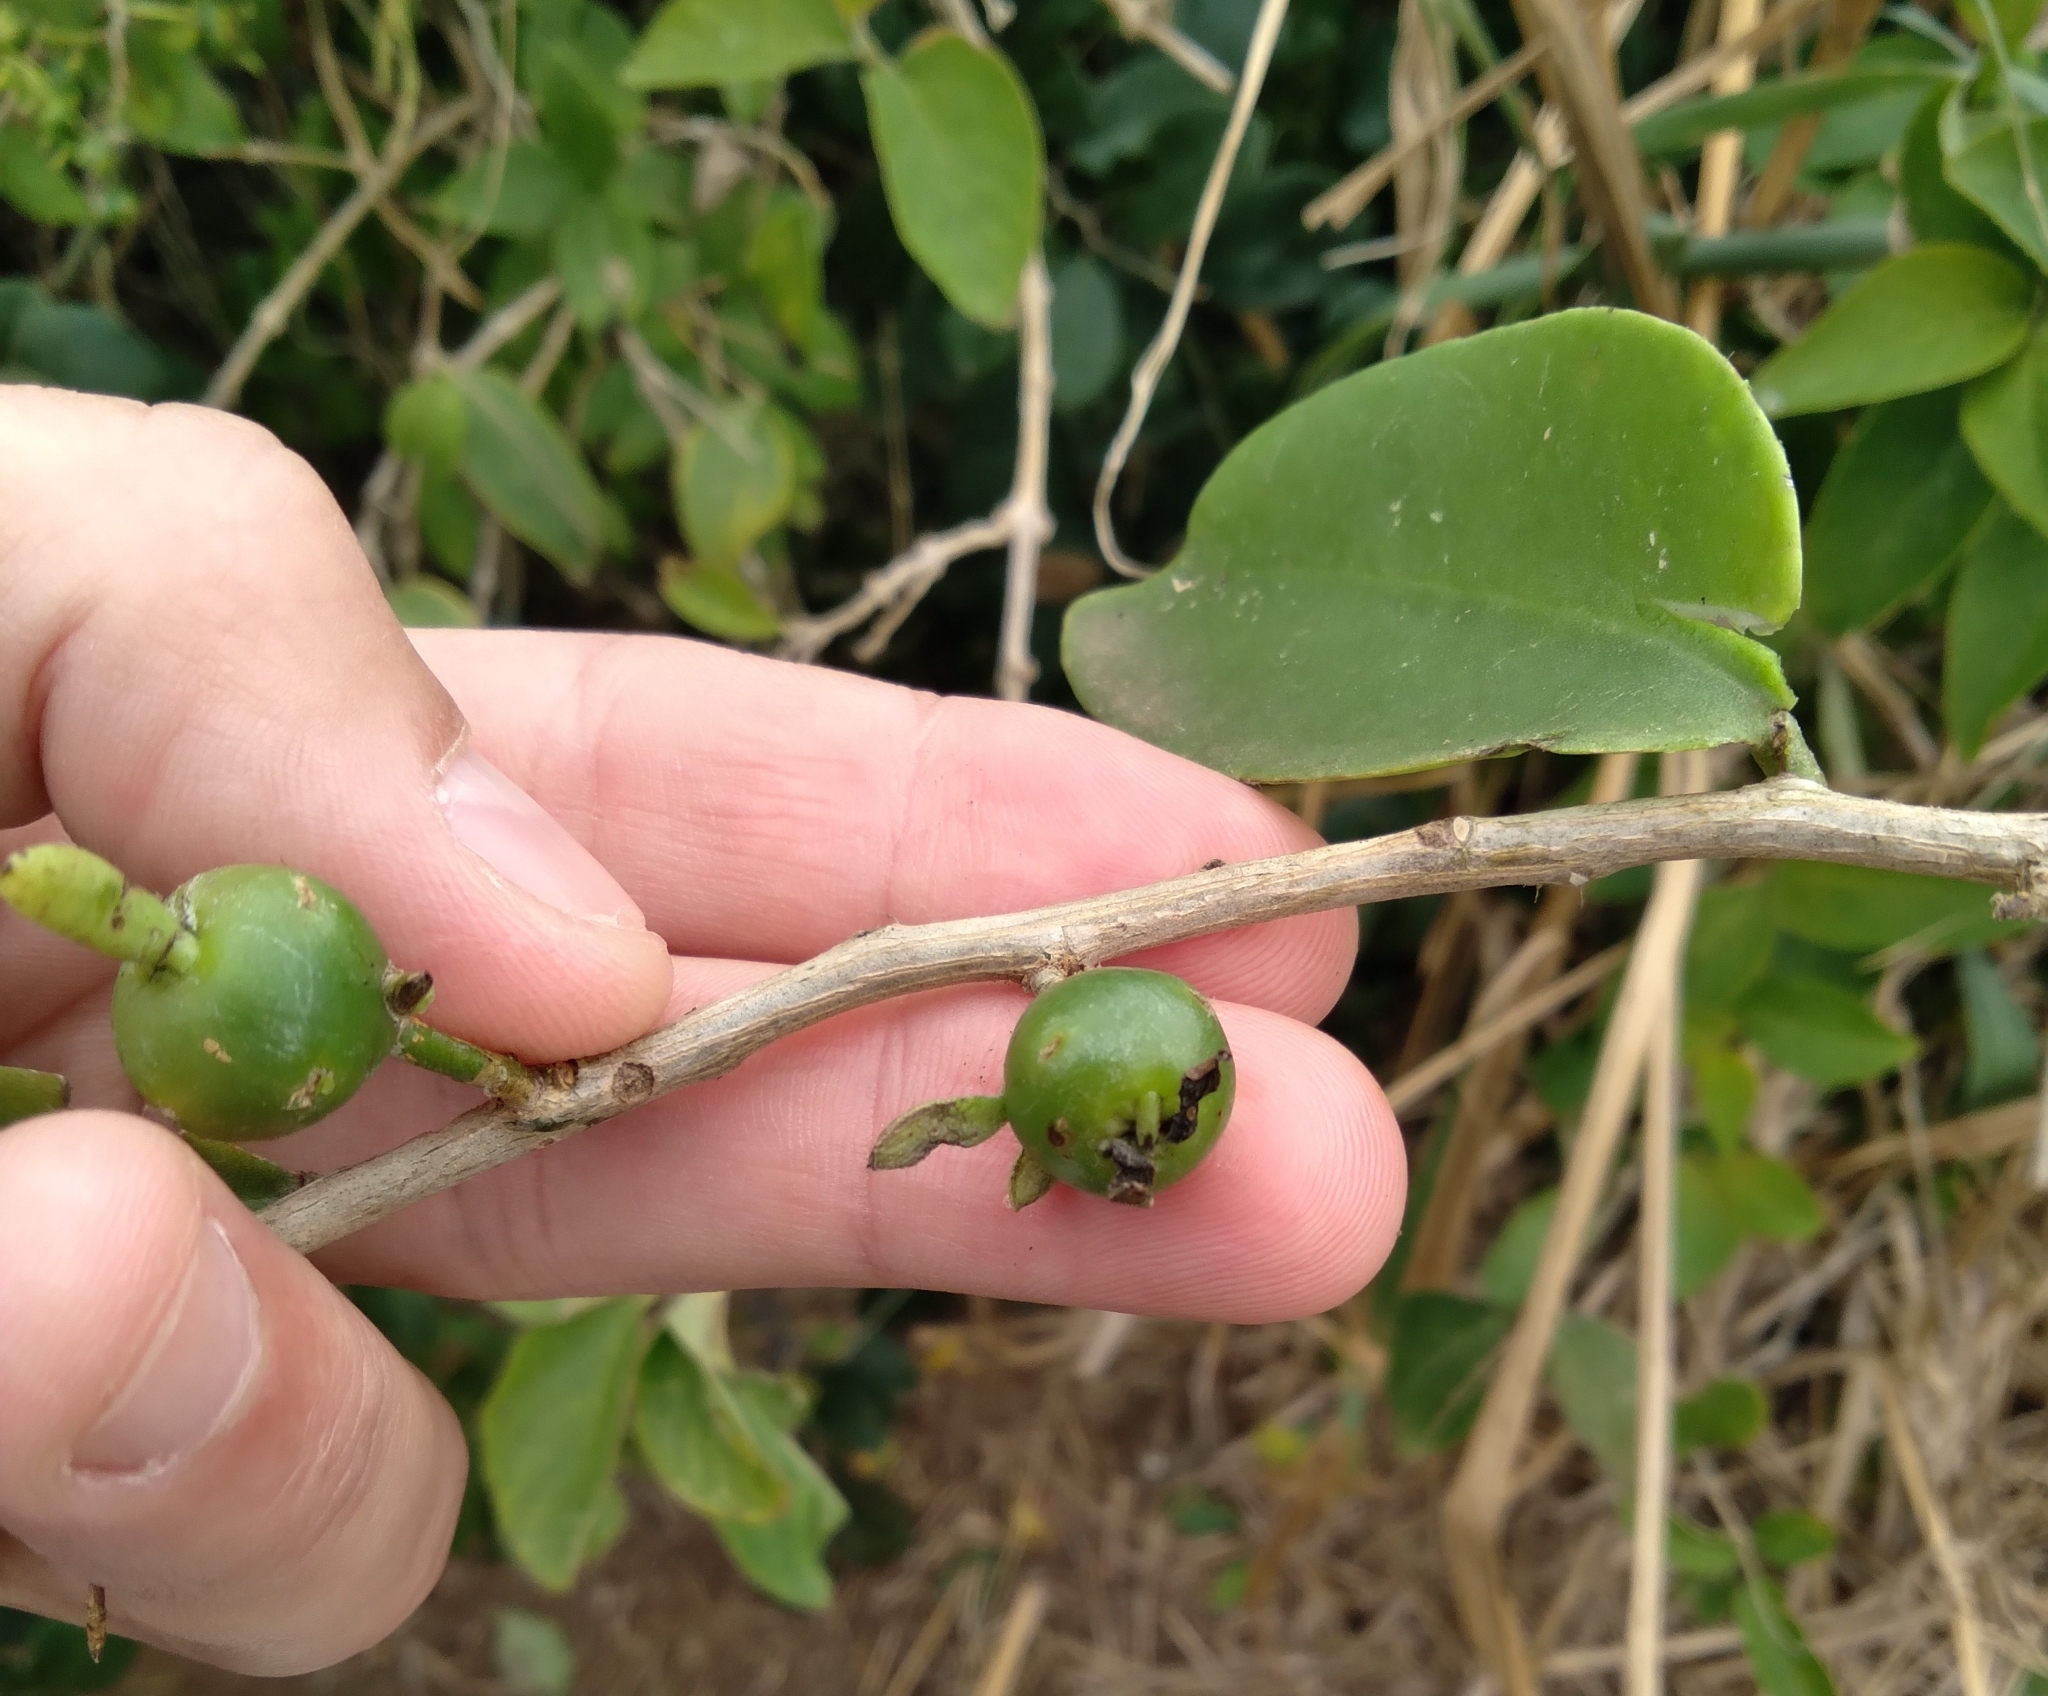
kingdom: Plantae
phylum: Tracheophyta
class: Magnoliopsida
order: Caryophyllales
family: Cactaceae
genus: Pereskia
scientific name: Pereskia aculeata
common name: Barbados gooseberry
